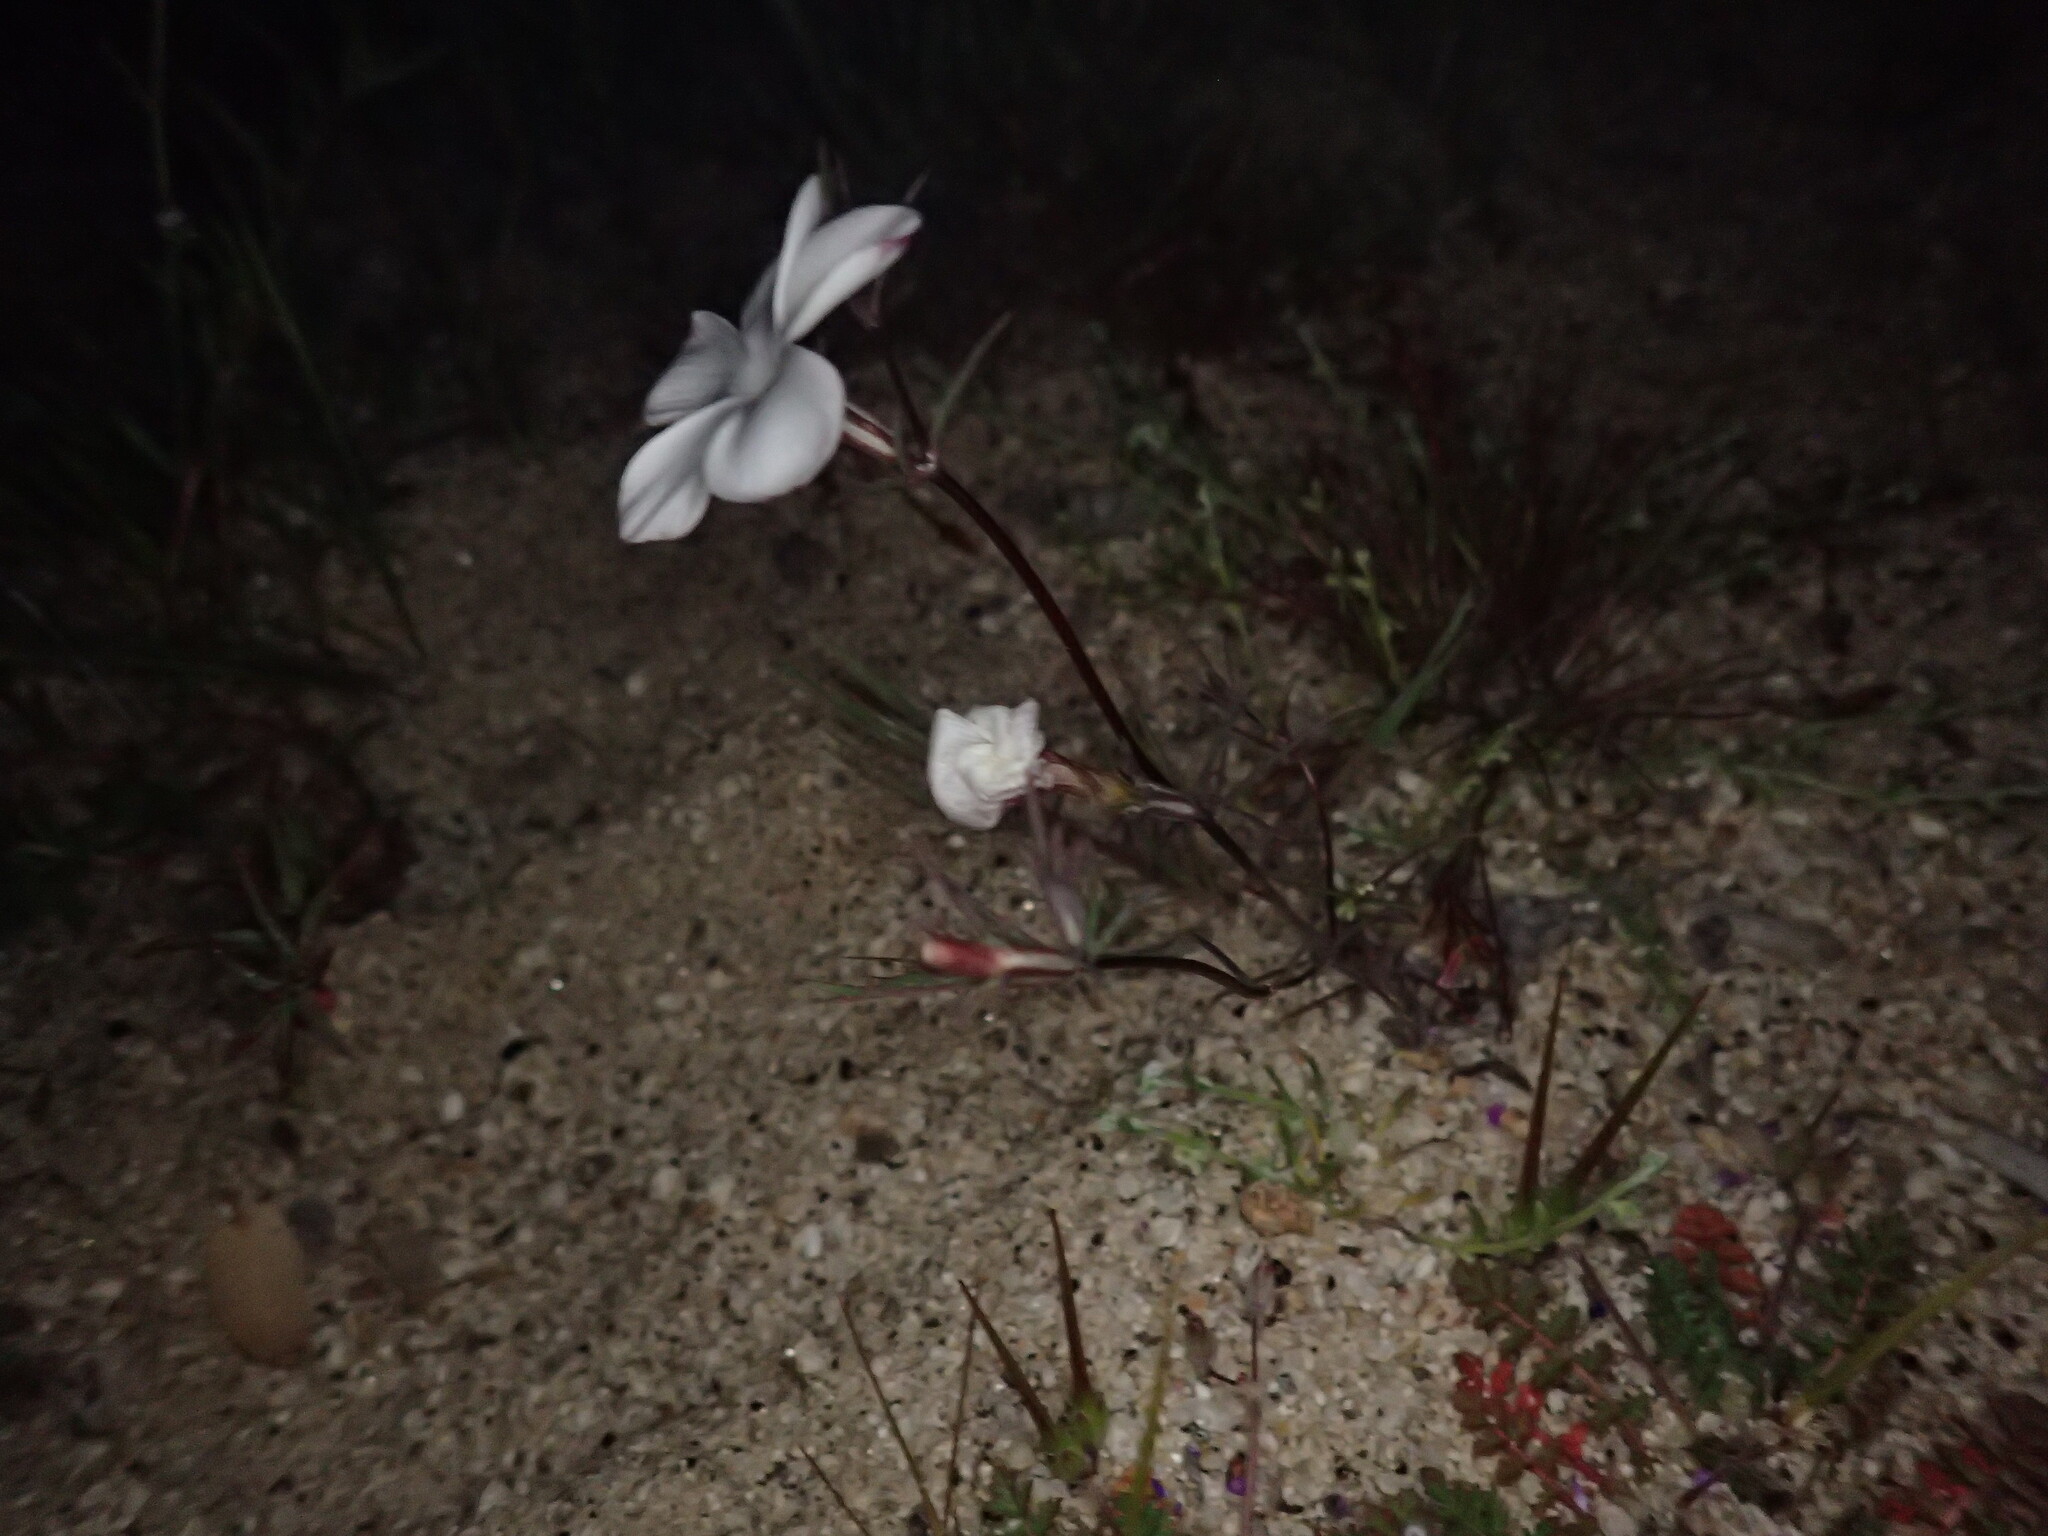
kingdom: Plantae
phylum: Tracheophyta
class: Magnoliopsida
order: Ericales
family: Polemoniaceae
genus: Linanthus
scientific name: Linanthus dichotomus
